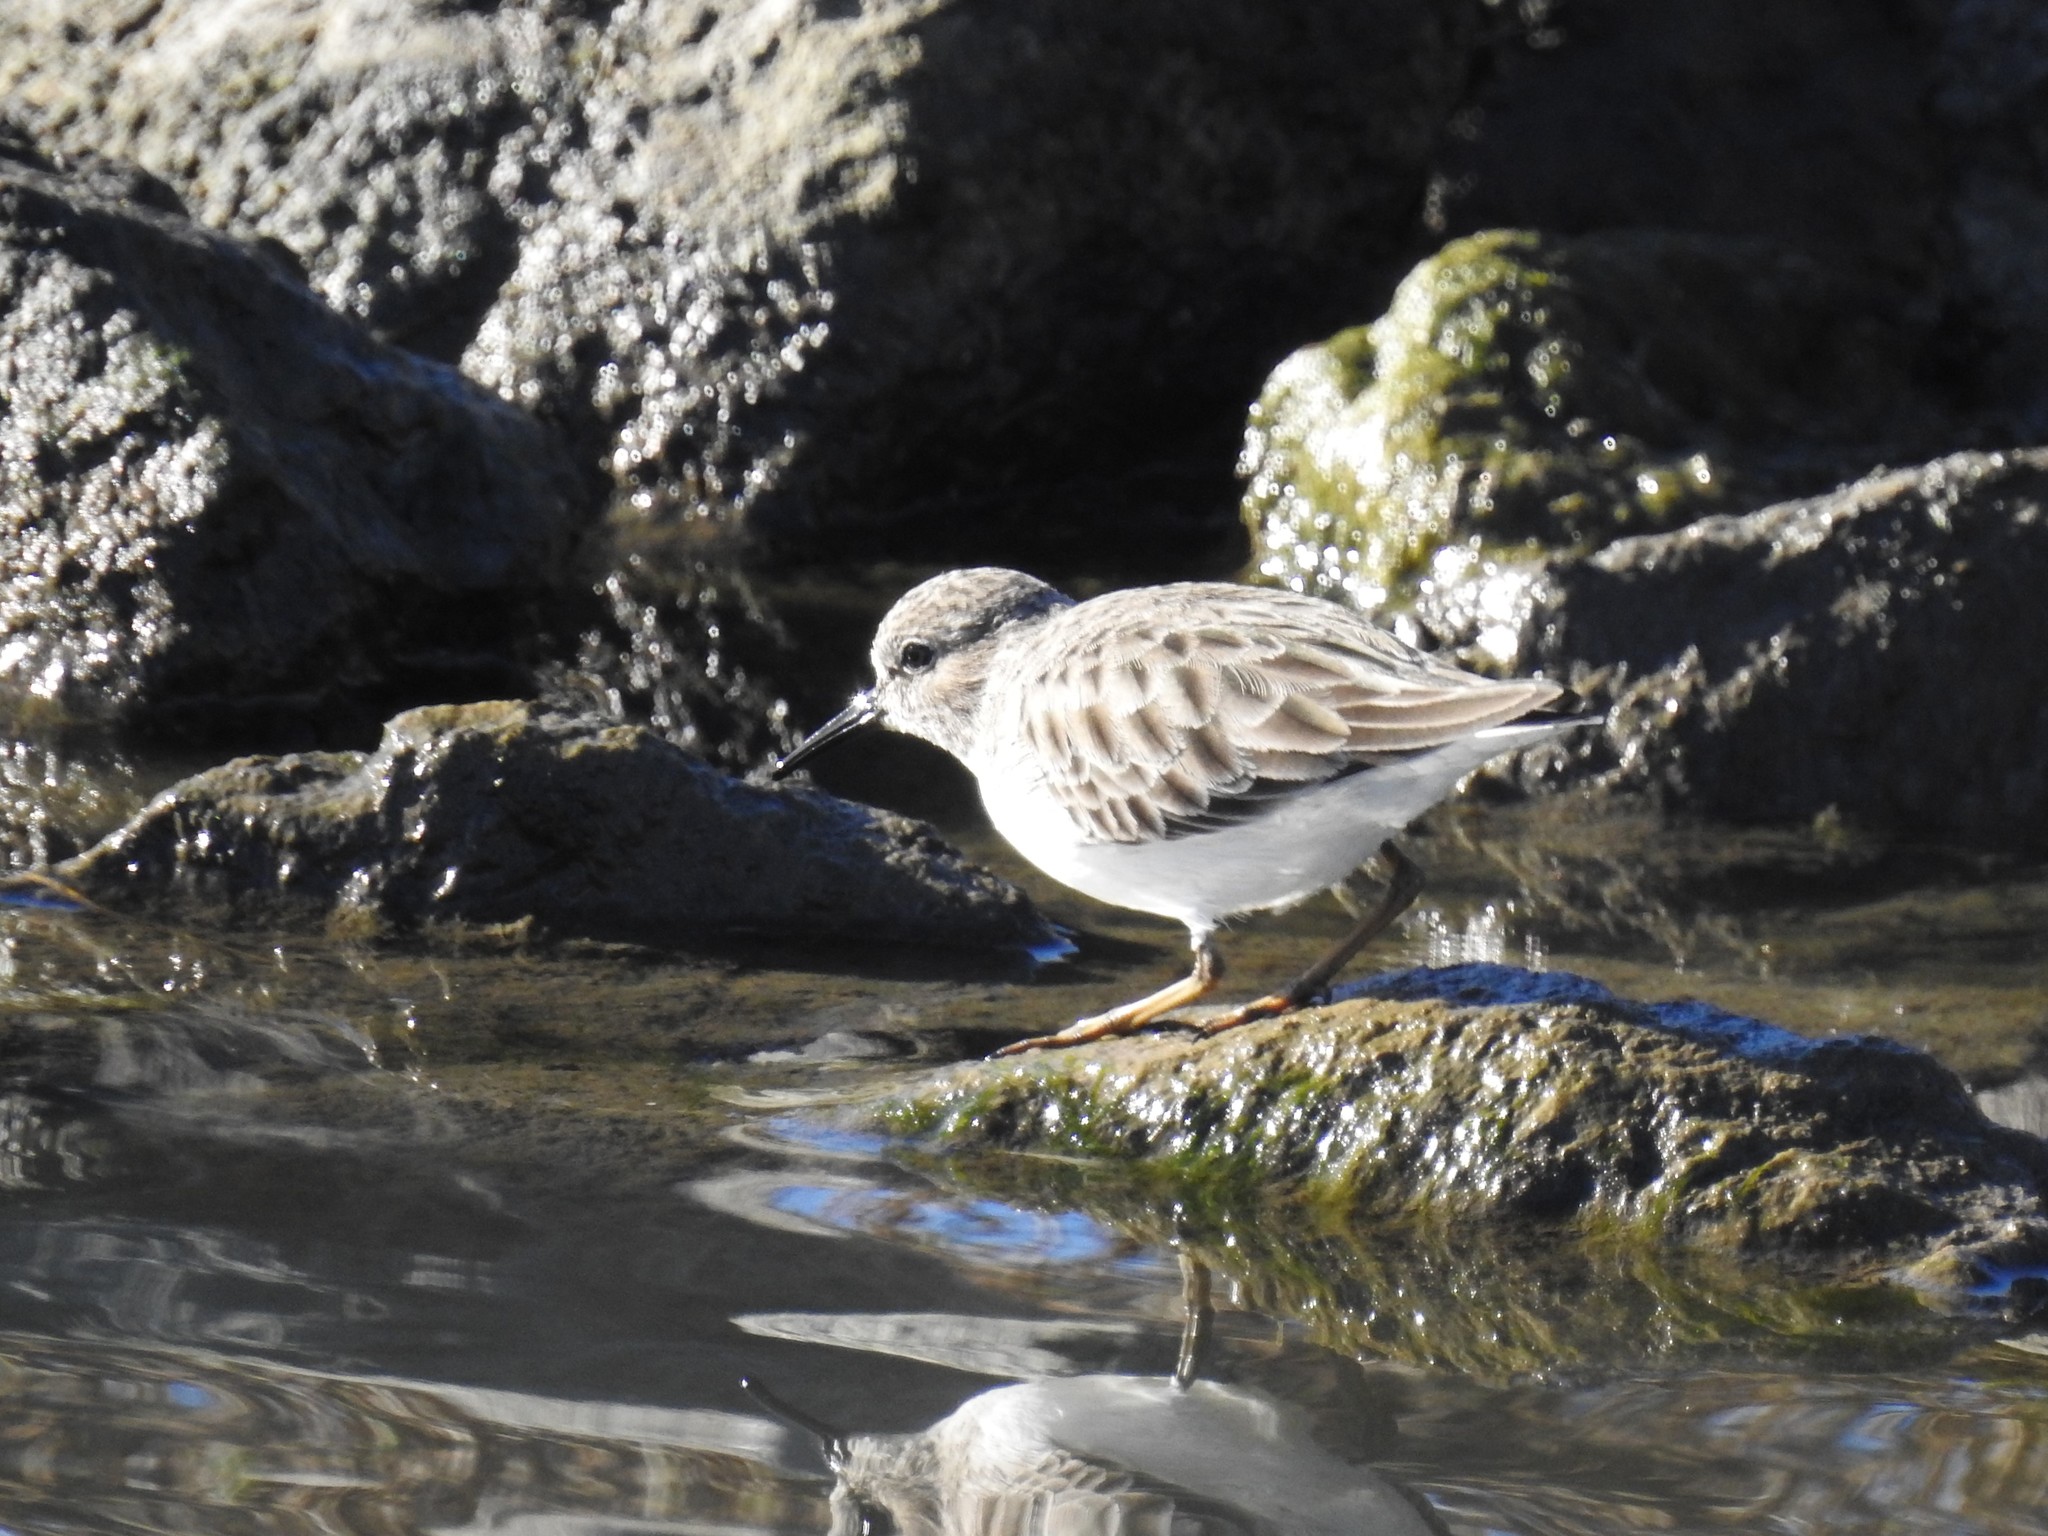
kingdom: Animalia
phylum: Chordata
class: Aves
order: Charadriiformes
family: Scolopacidae
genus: Calidris
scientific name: Calidris minutilla
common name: Least sandpiper
